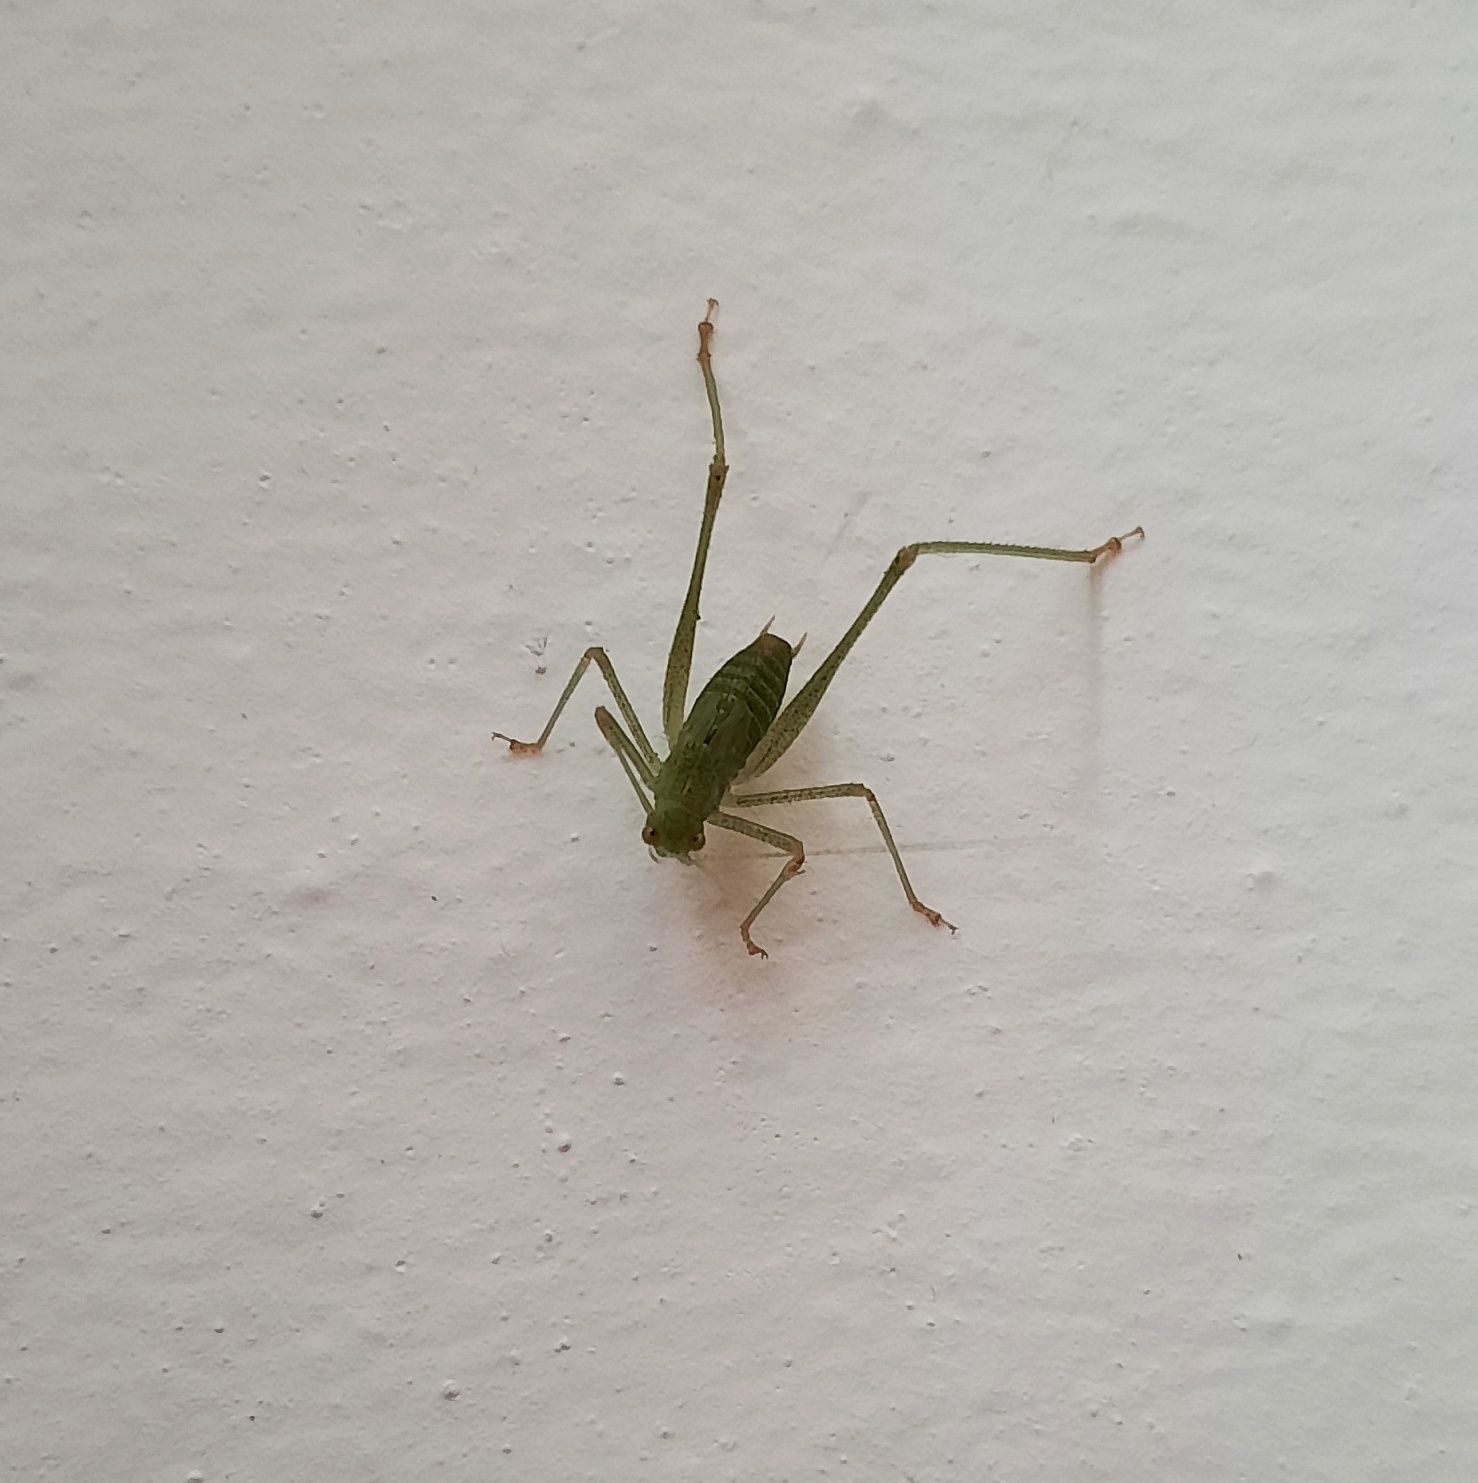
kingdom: Animalia
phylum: Arthropoda
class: Insecta
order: Orthoptera
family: Tettigoniidae
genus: Phaneroptera
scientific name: Phaneroptera nana
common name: Southern sickle bush-cricket
